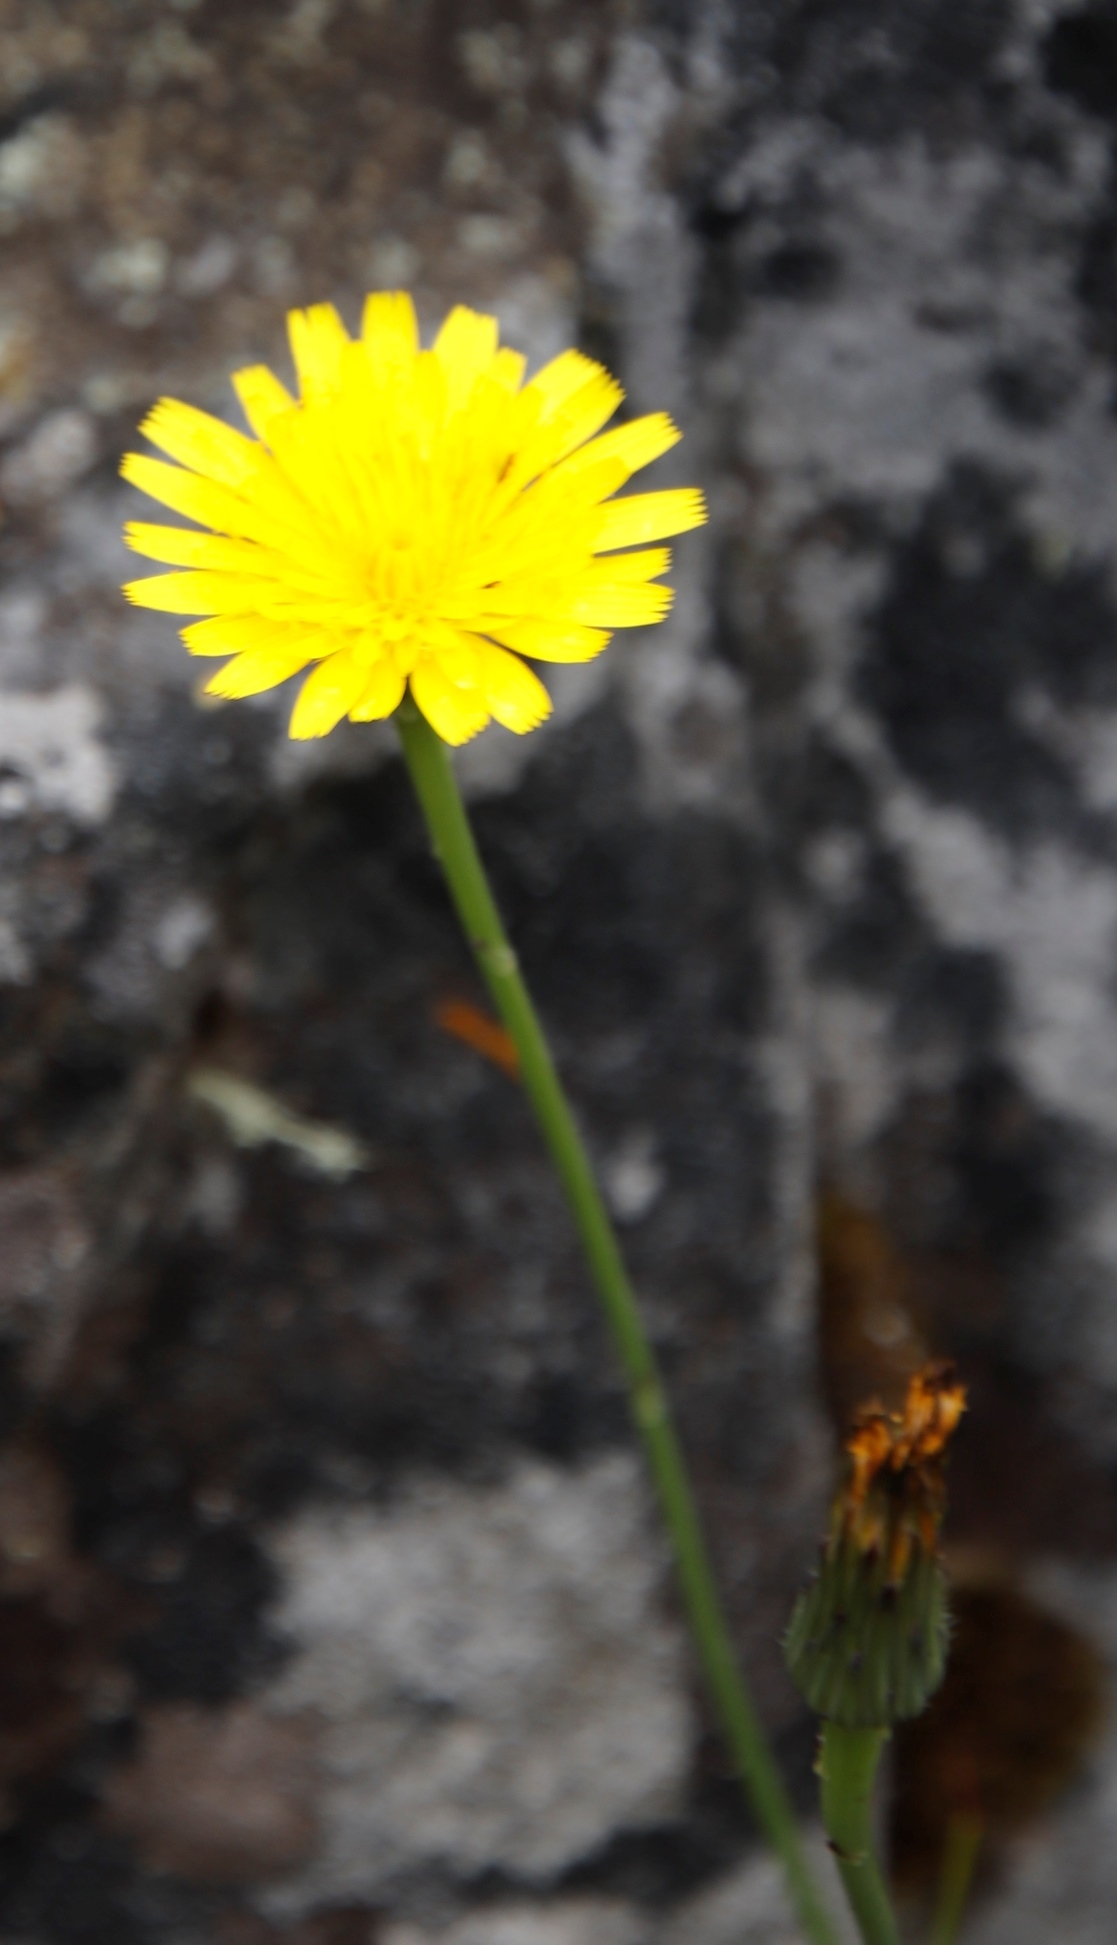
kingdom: Plantae
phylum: Tracheophyta
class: Magnoliopsida
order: Asterales
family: Asteraceae
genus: Hypochaeris
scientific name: Hypochaeris radicata
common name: Flatweed
